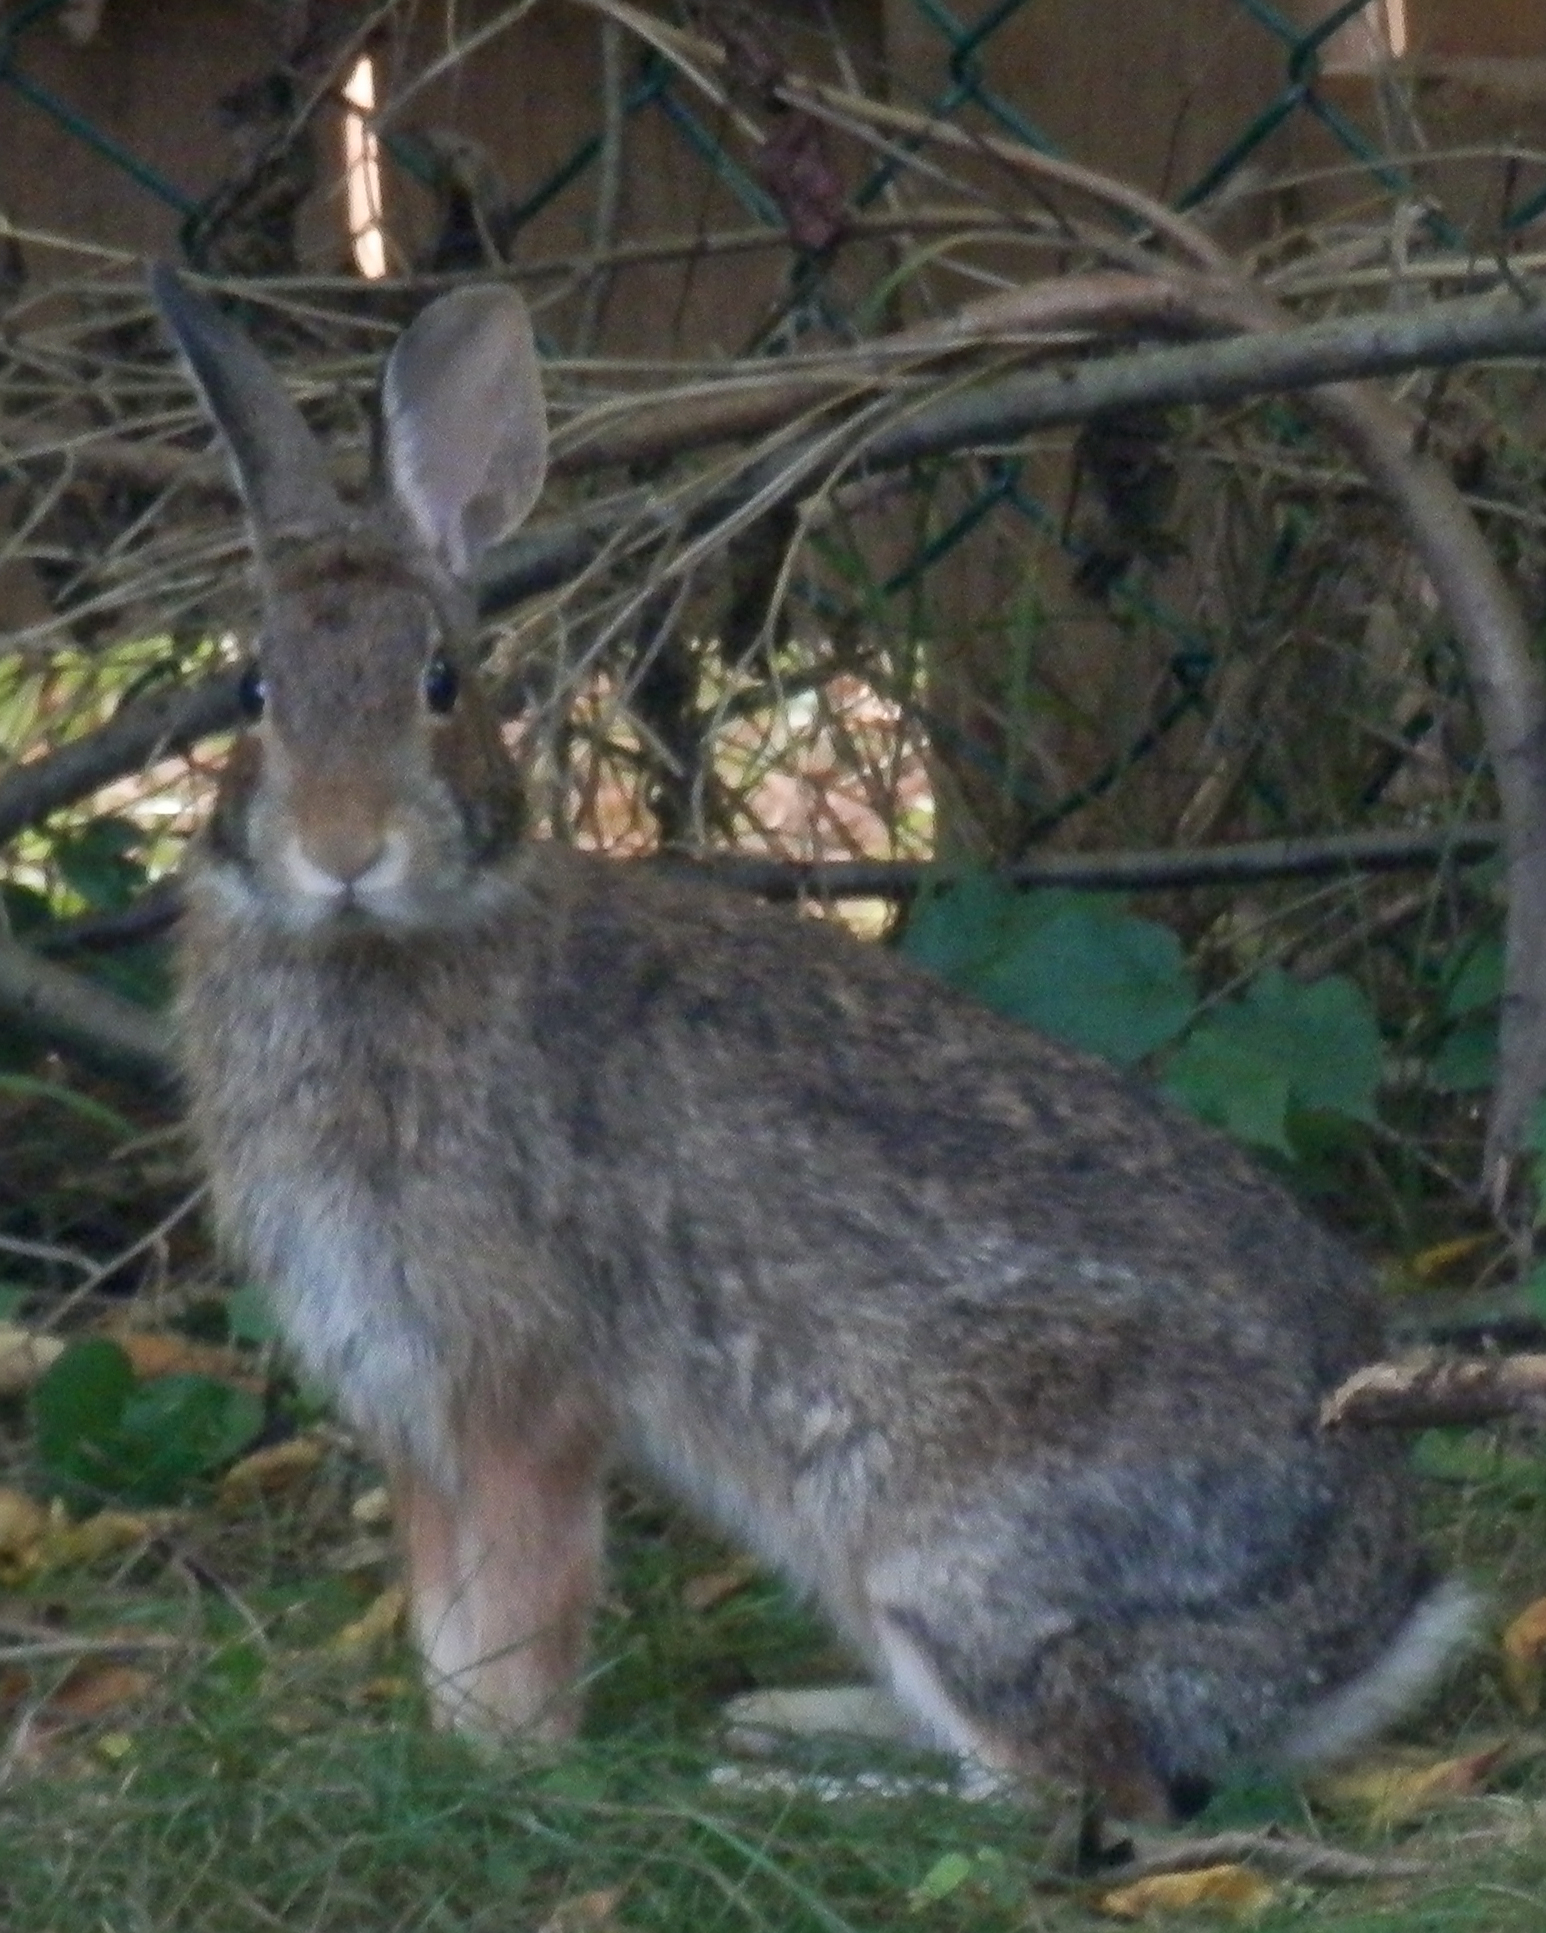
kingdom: Animalia
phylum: Chordata
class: Mammalia
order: Lagomorpha
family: Leporidae
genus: Sylvilagus
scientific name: Sylvilagus floridanus
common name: Eastern cottontail
